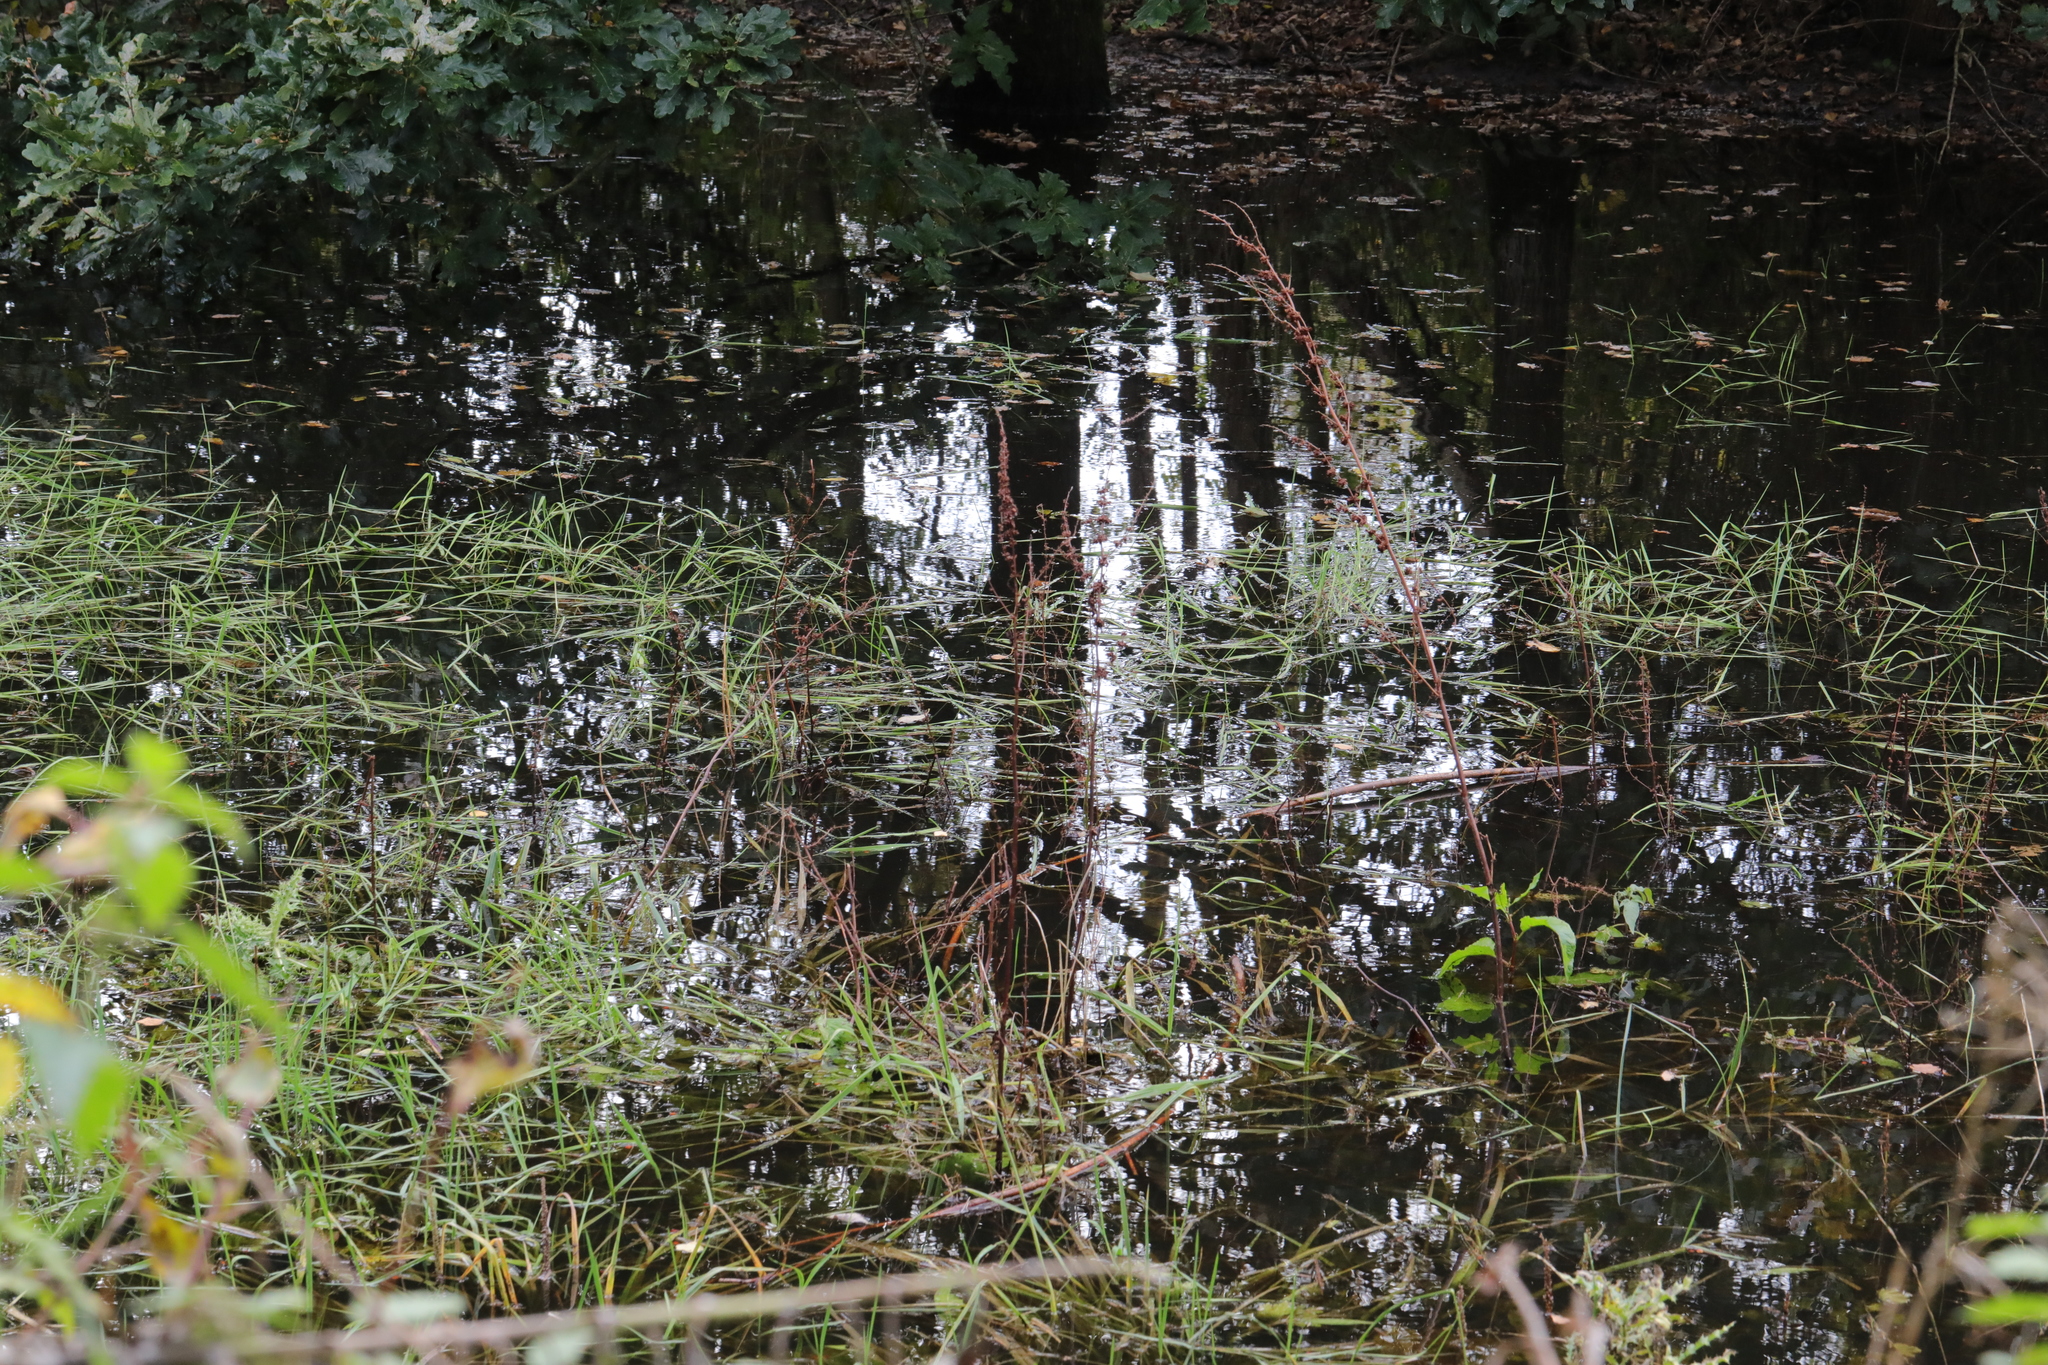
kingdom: Plantae
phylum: Tracheophyta
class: Liliopsida
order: Poales
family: Poaceae
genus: Glyceria
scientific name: Glyceria fluitans
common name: Floating sweet-grass
